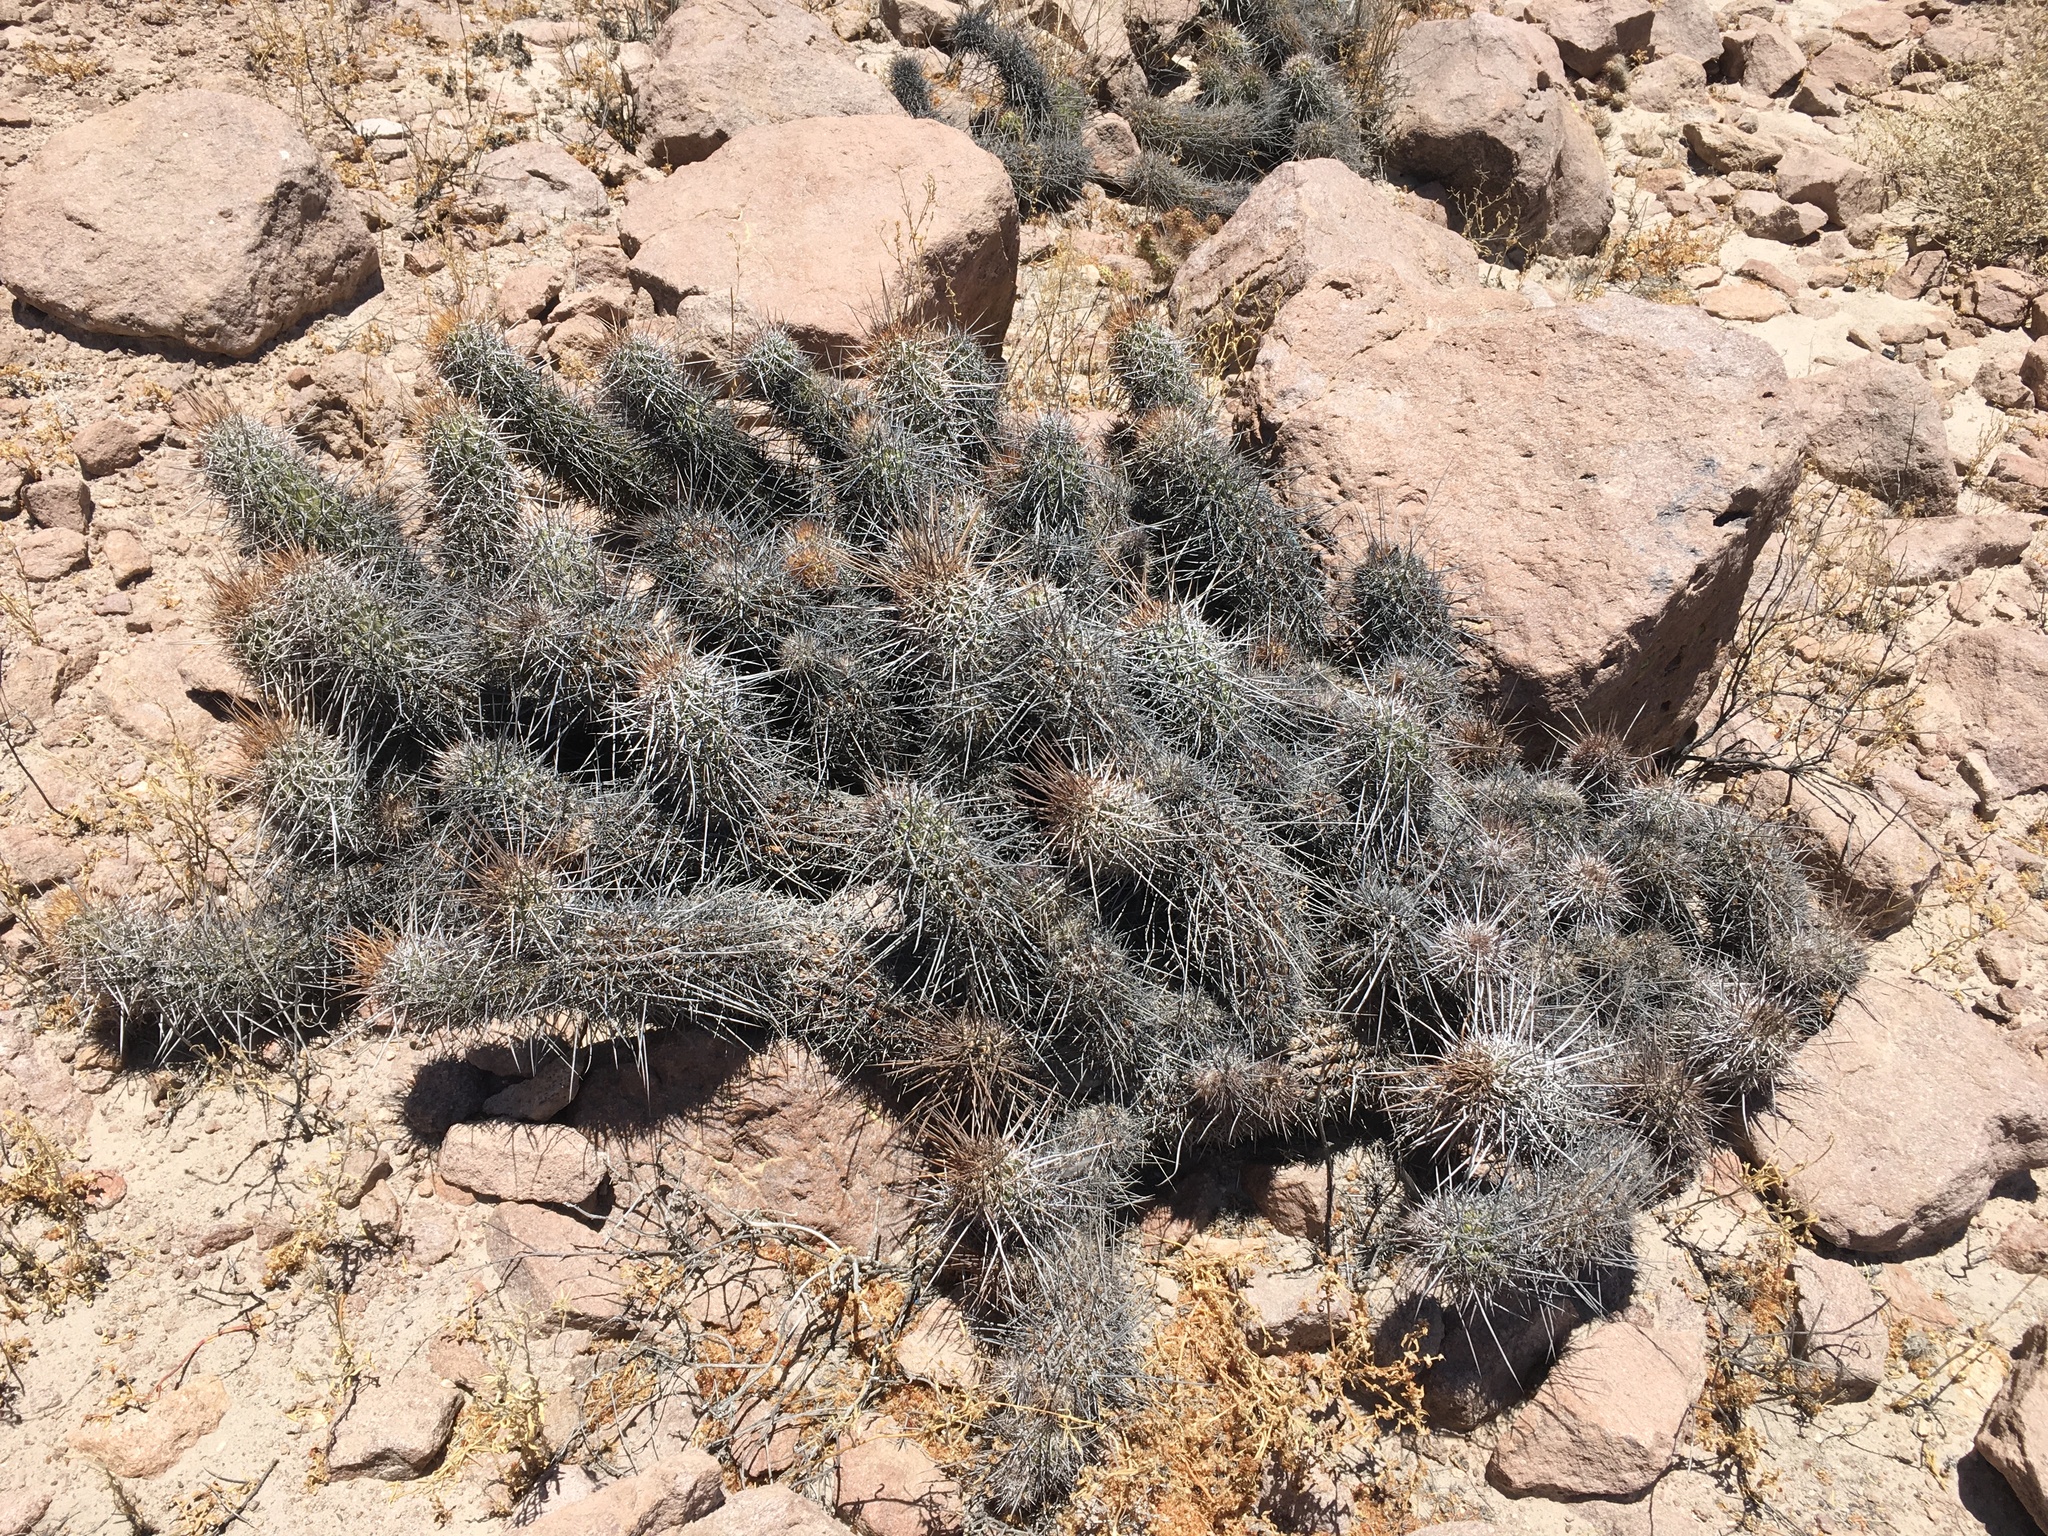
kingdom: Plantae
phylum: Tracheophyta
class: Magnoliopsida
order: Caryophyllales
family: Cactaceae
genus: Oreocereus
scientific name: Oreocereus hempelianus
